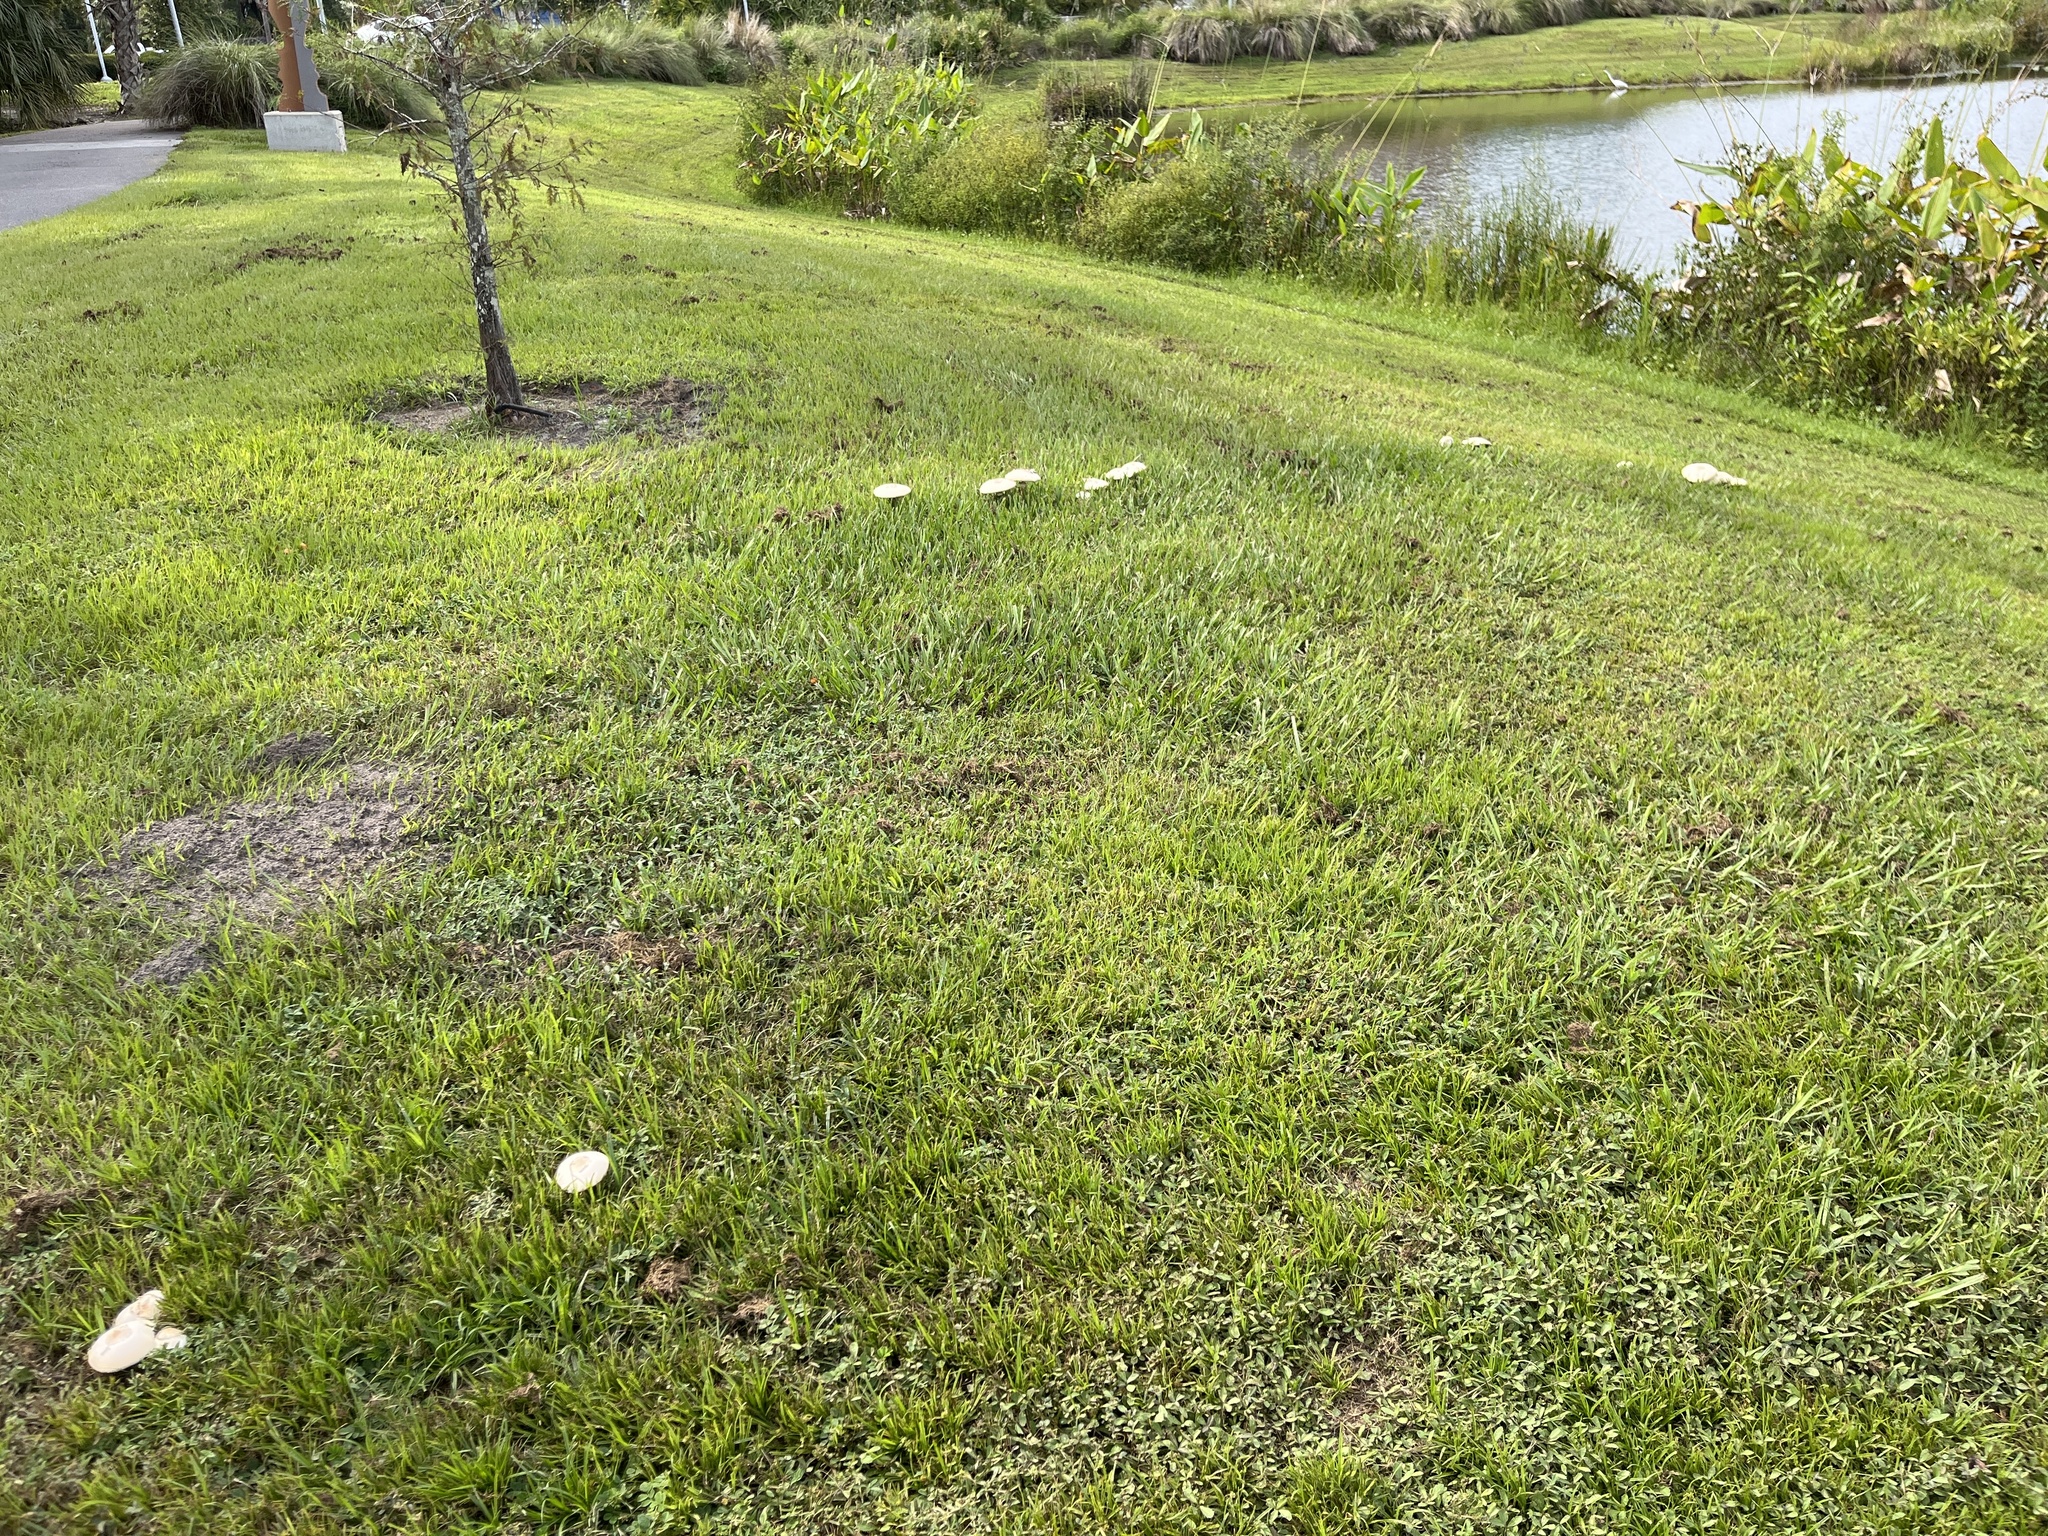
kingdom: Fungi
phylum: Basidiomycota
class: Agaricomycetes
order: Agaricales
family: Agaricaceae
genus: Chlorophyllum
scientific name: Chlorophyllum molybdites
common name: False parasol
